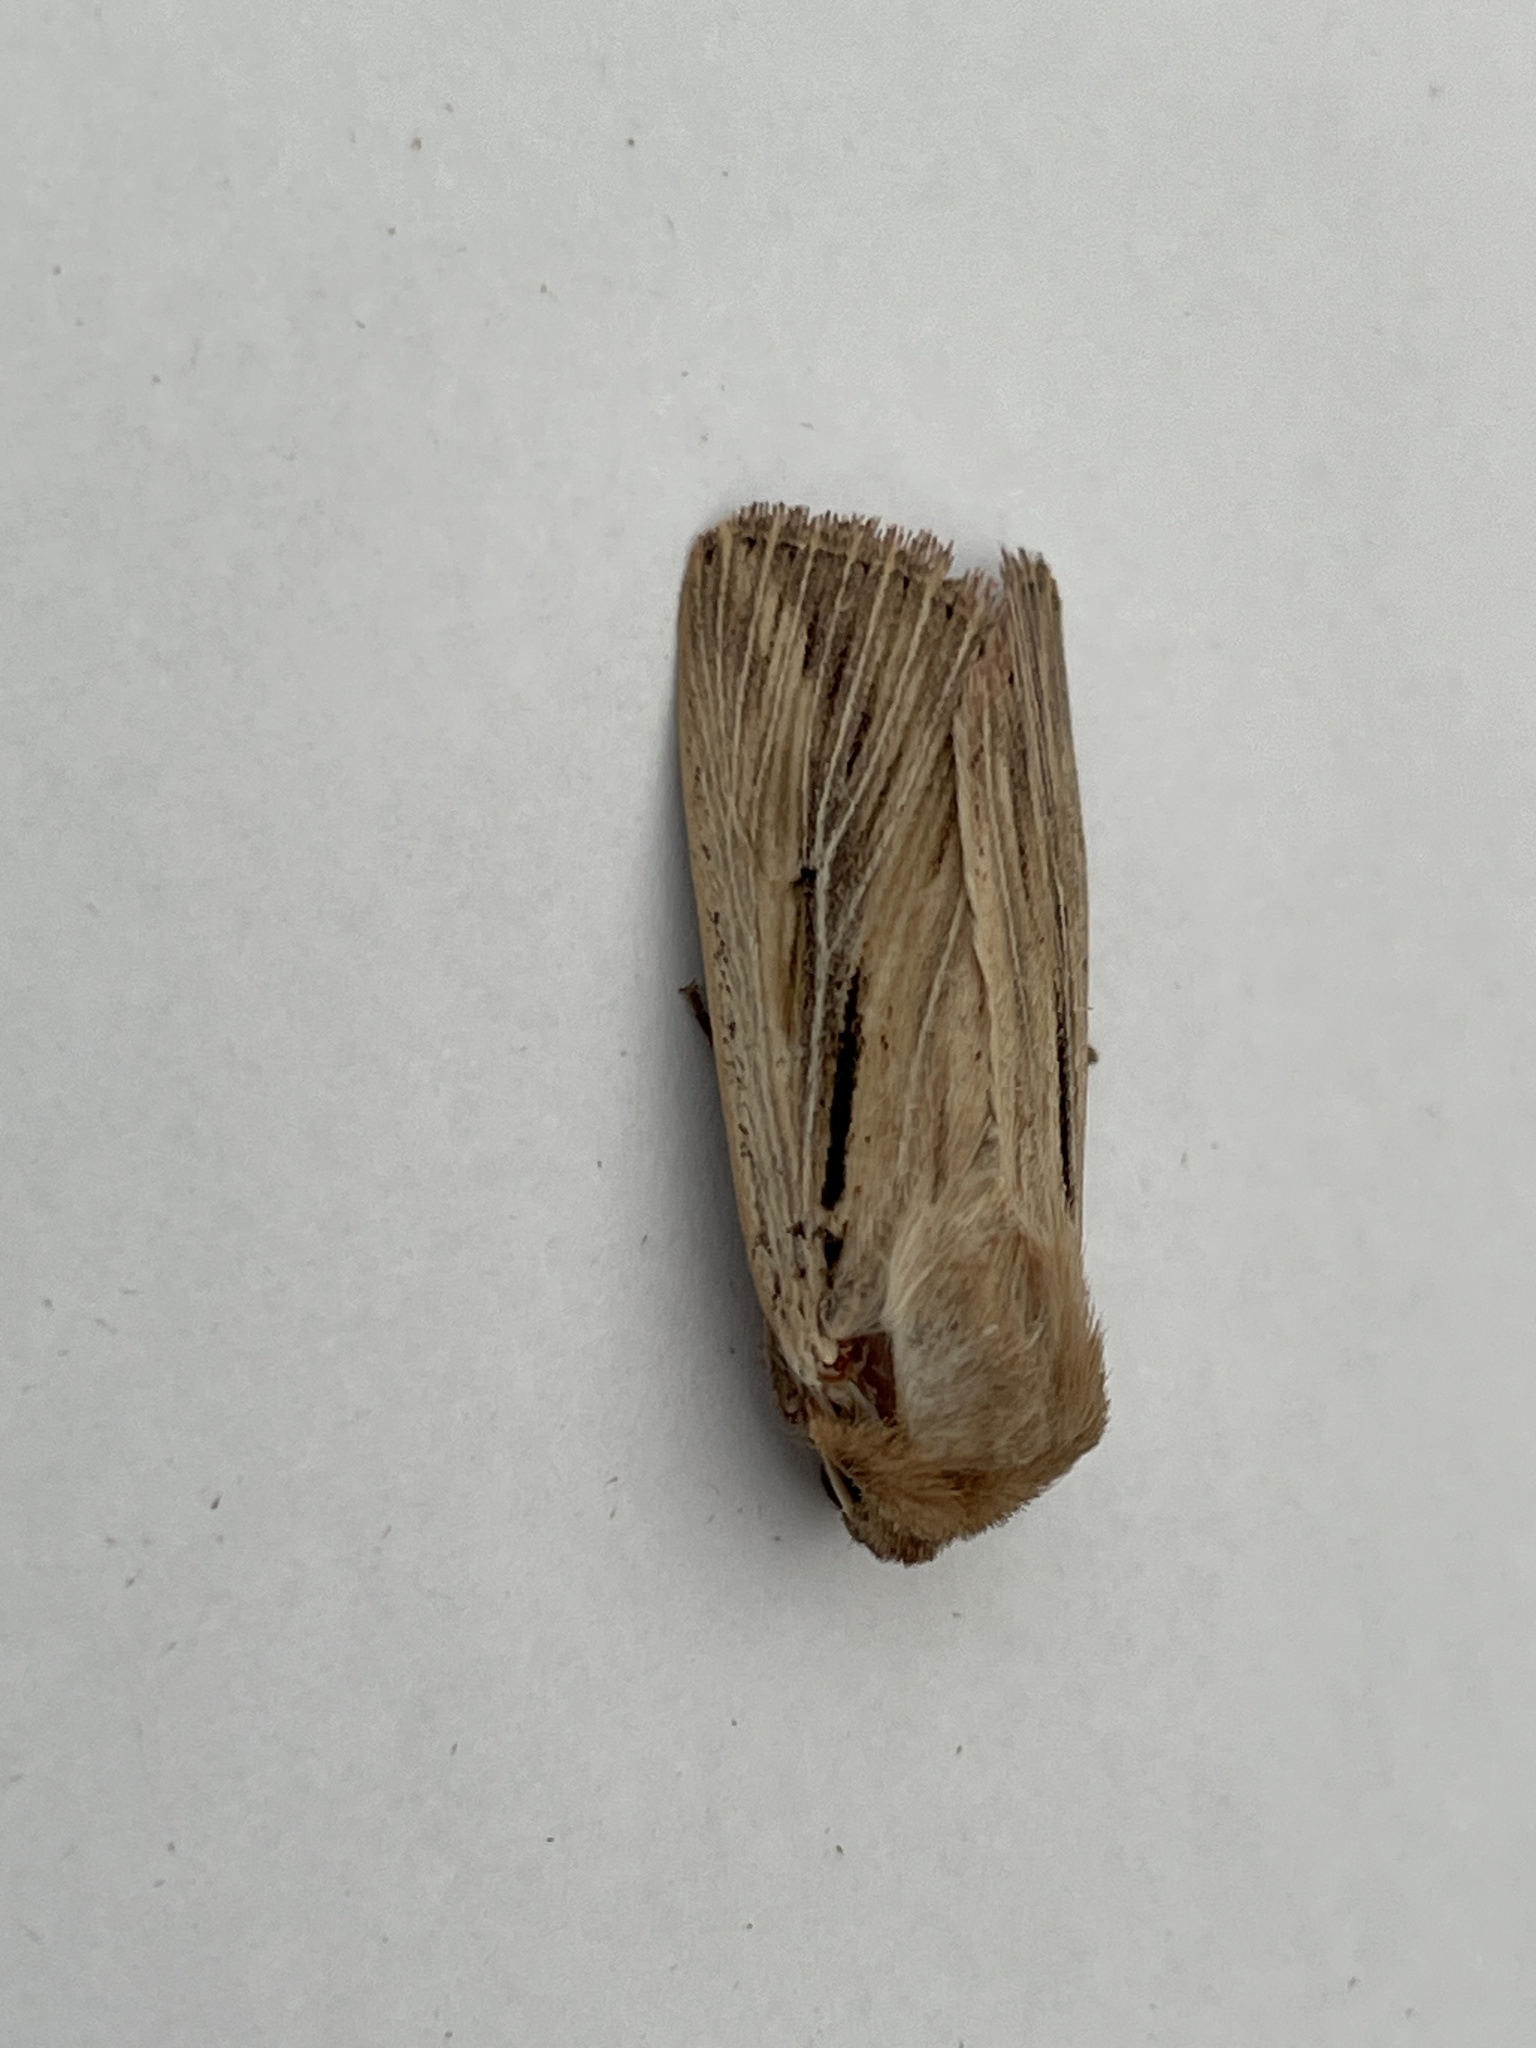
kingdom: Animalia
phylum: Arthropoda
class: Insecta
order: Lepidoptera
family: Noctuidae
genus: Leucania
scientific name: Leucania comma
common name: Shoulder-striped wainscot
